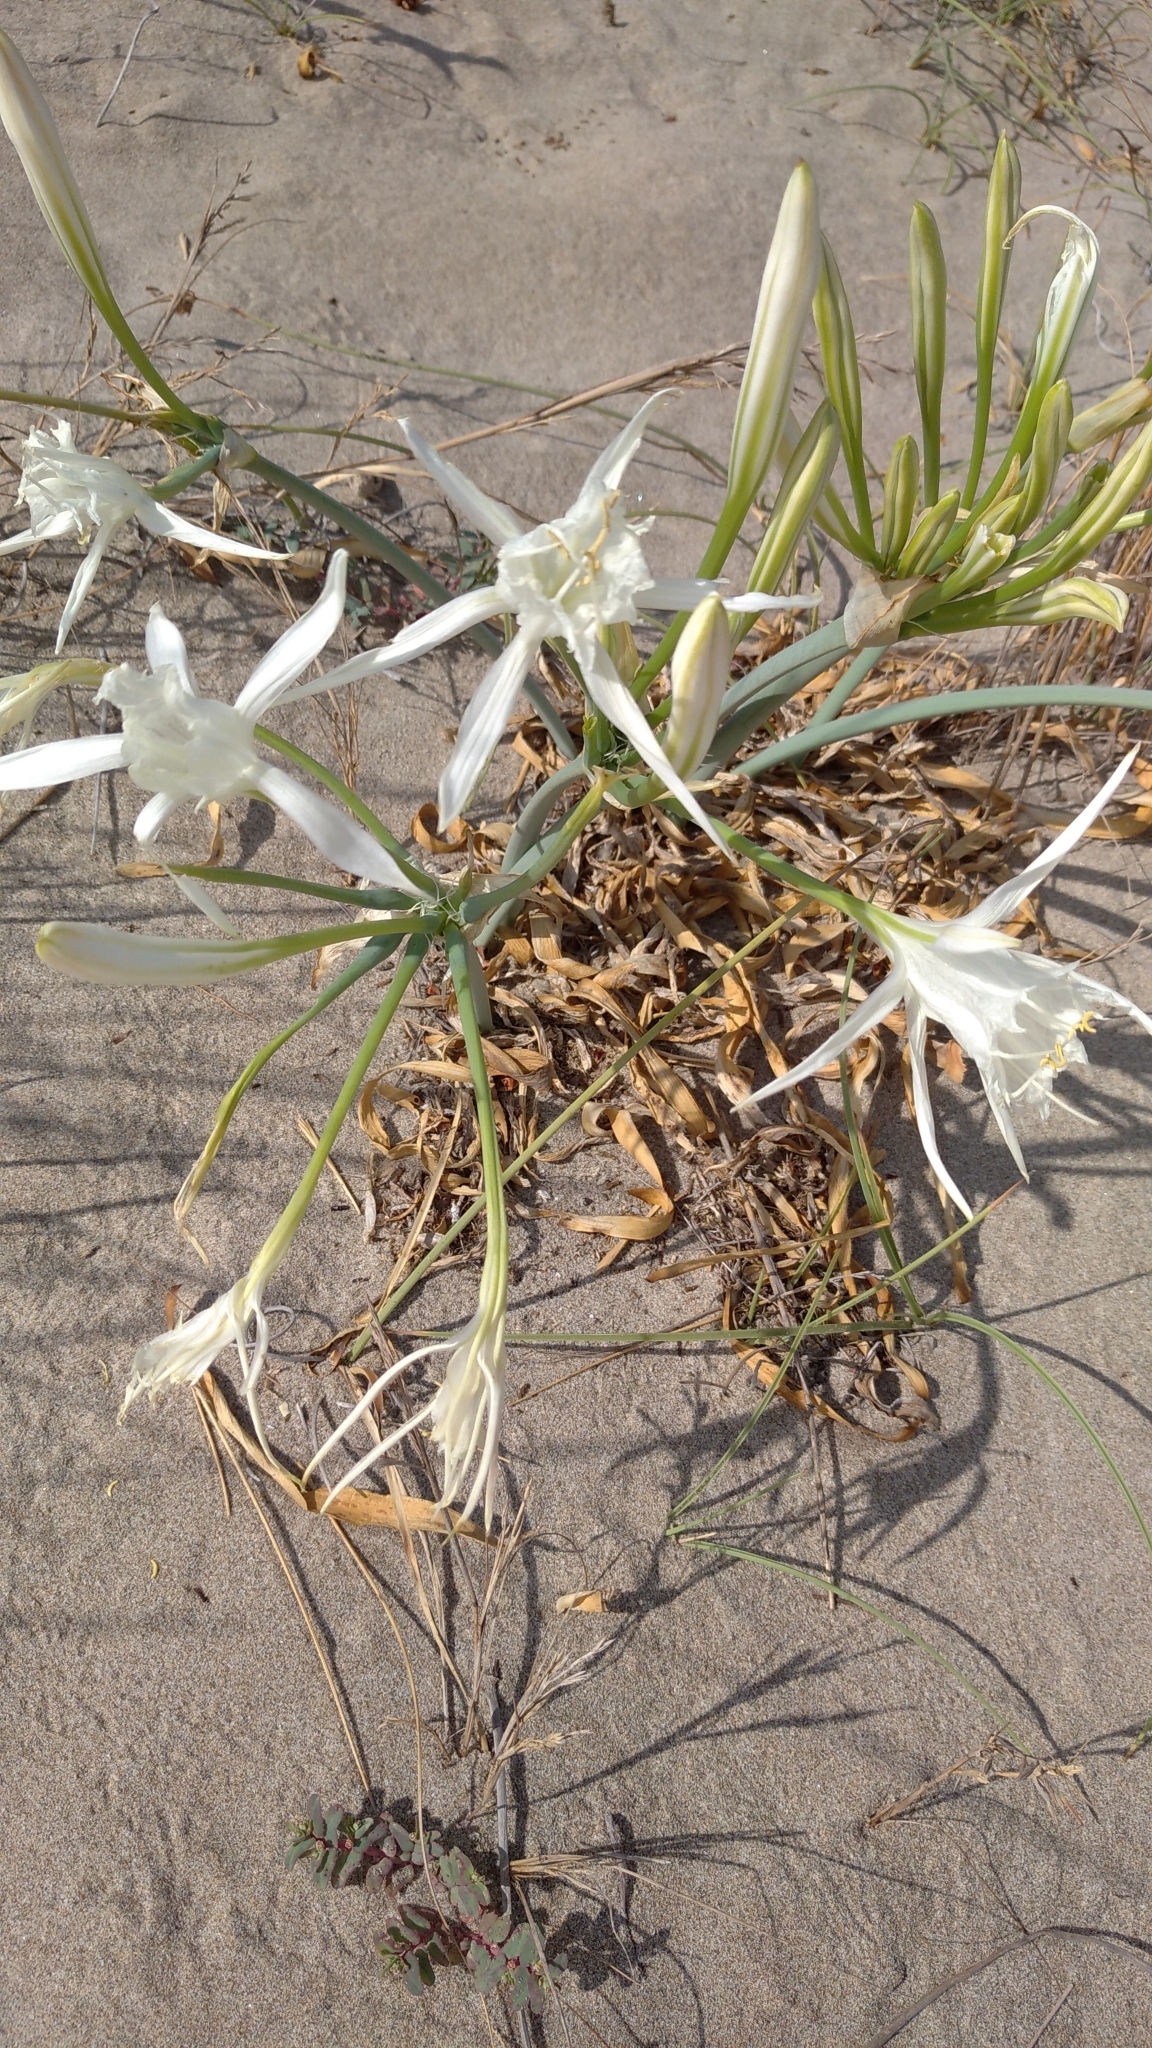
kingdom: Plantae
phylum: Tracheophyta
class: Liliopsida
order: Asparagales
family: Amaryllidaceae
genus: Pancratium
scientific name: Pancratium maritimum
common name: Sea-daffodil
